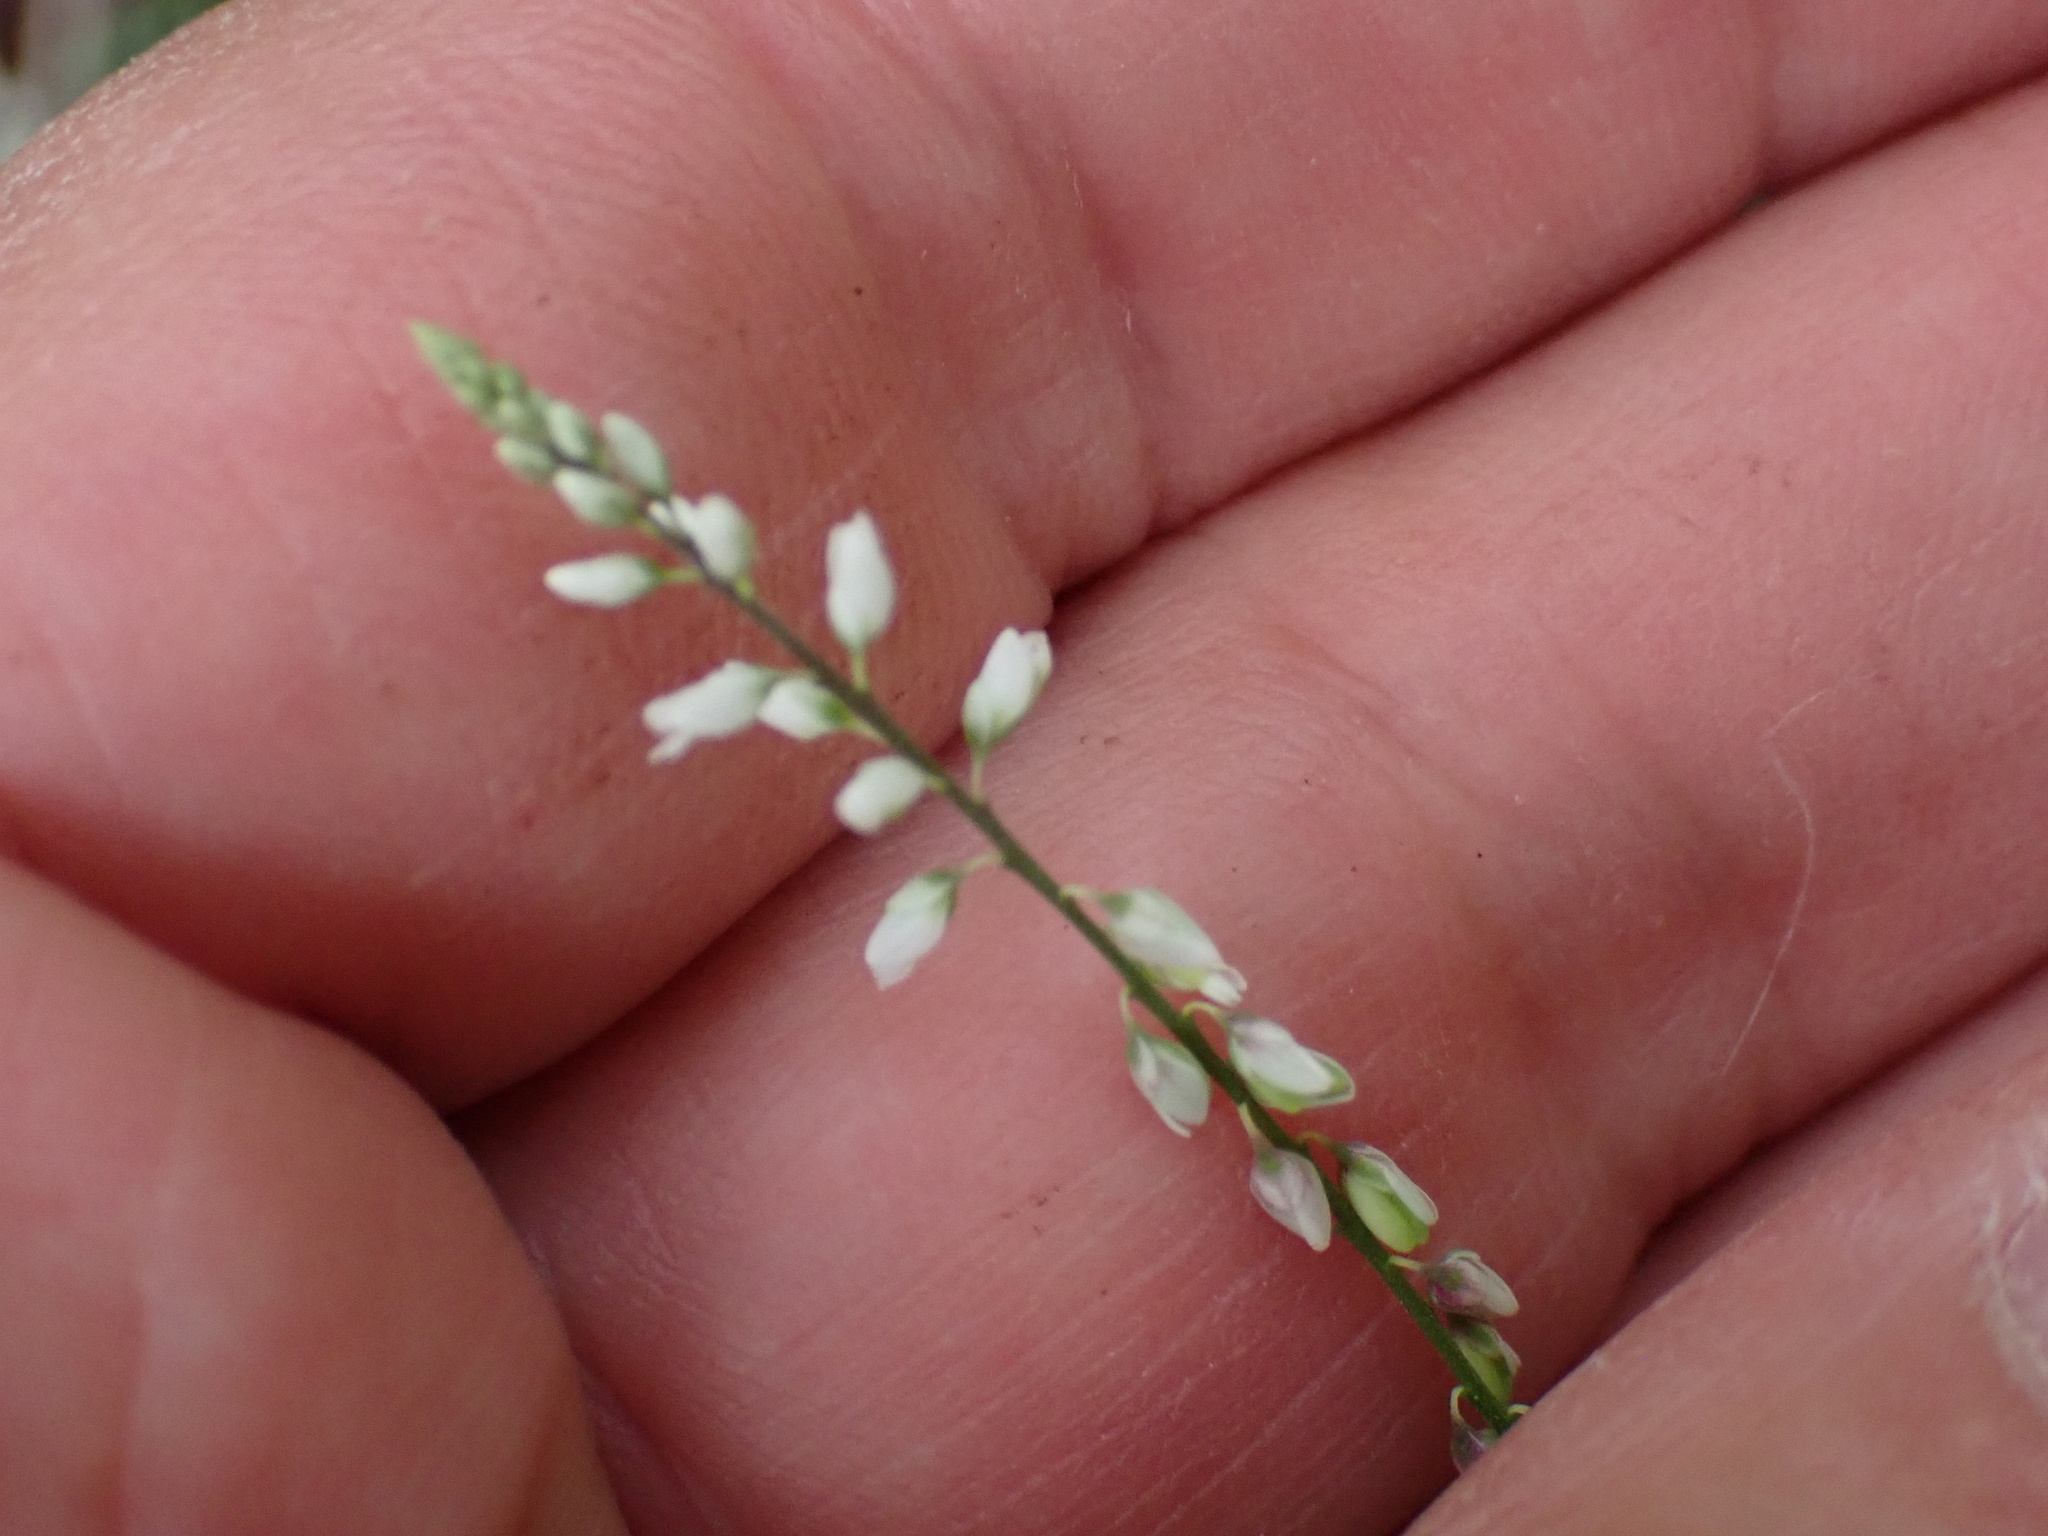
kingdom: Plantae
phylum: Tracheophyta
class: Magnoliopsida
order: Fabales
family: Polygalaceae
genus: Polygala
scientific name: Polygala paniculata
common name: Orosne
